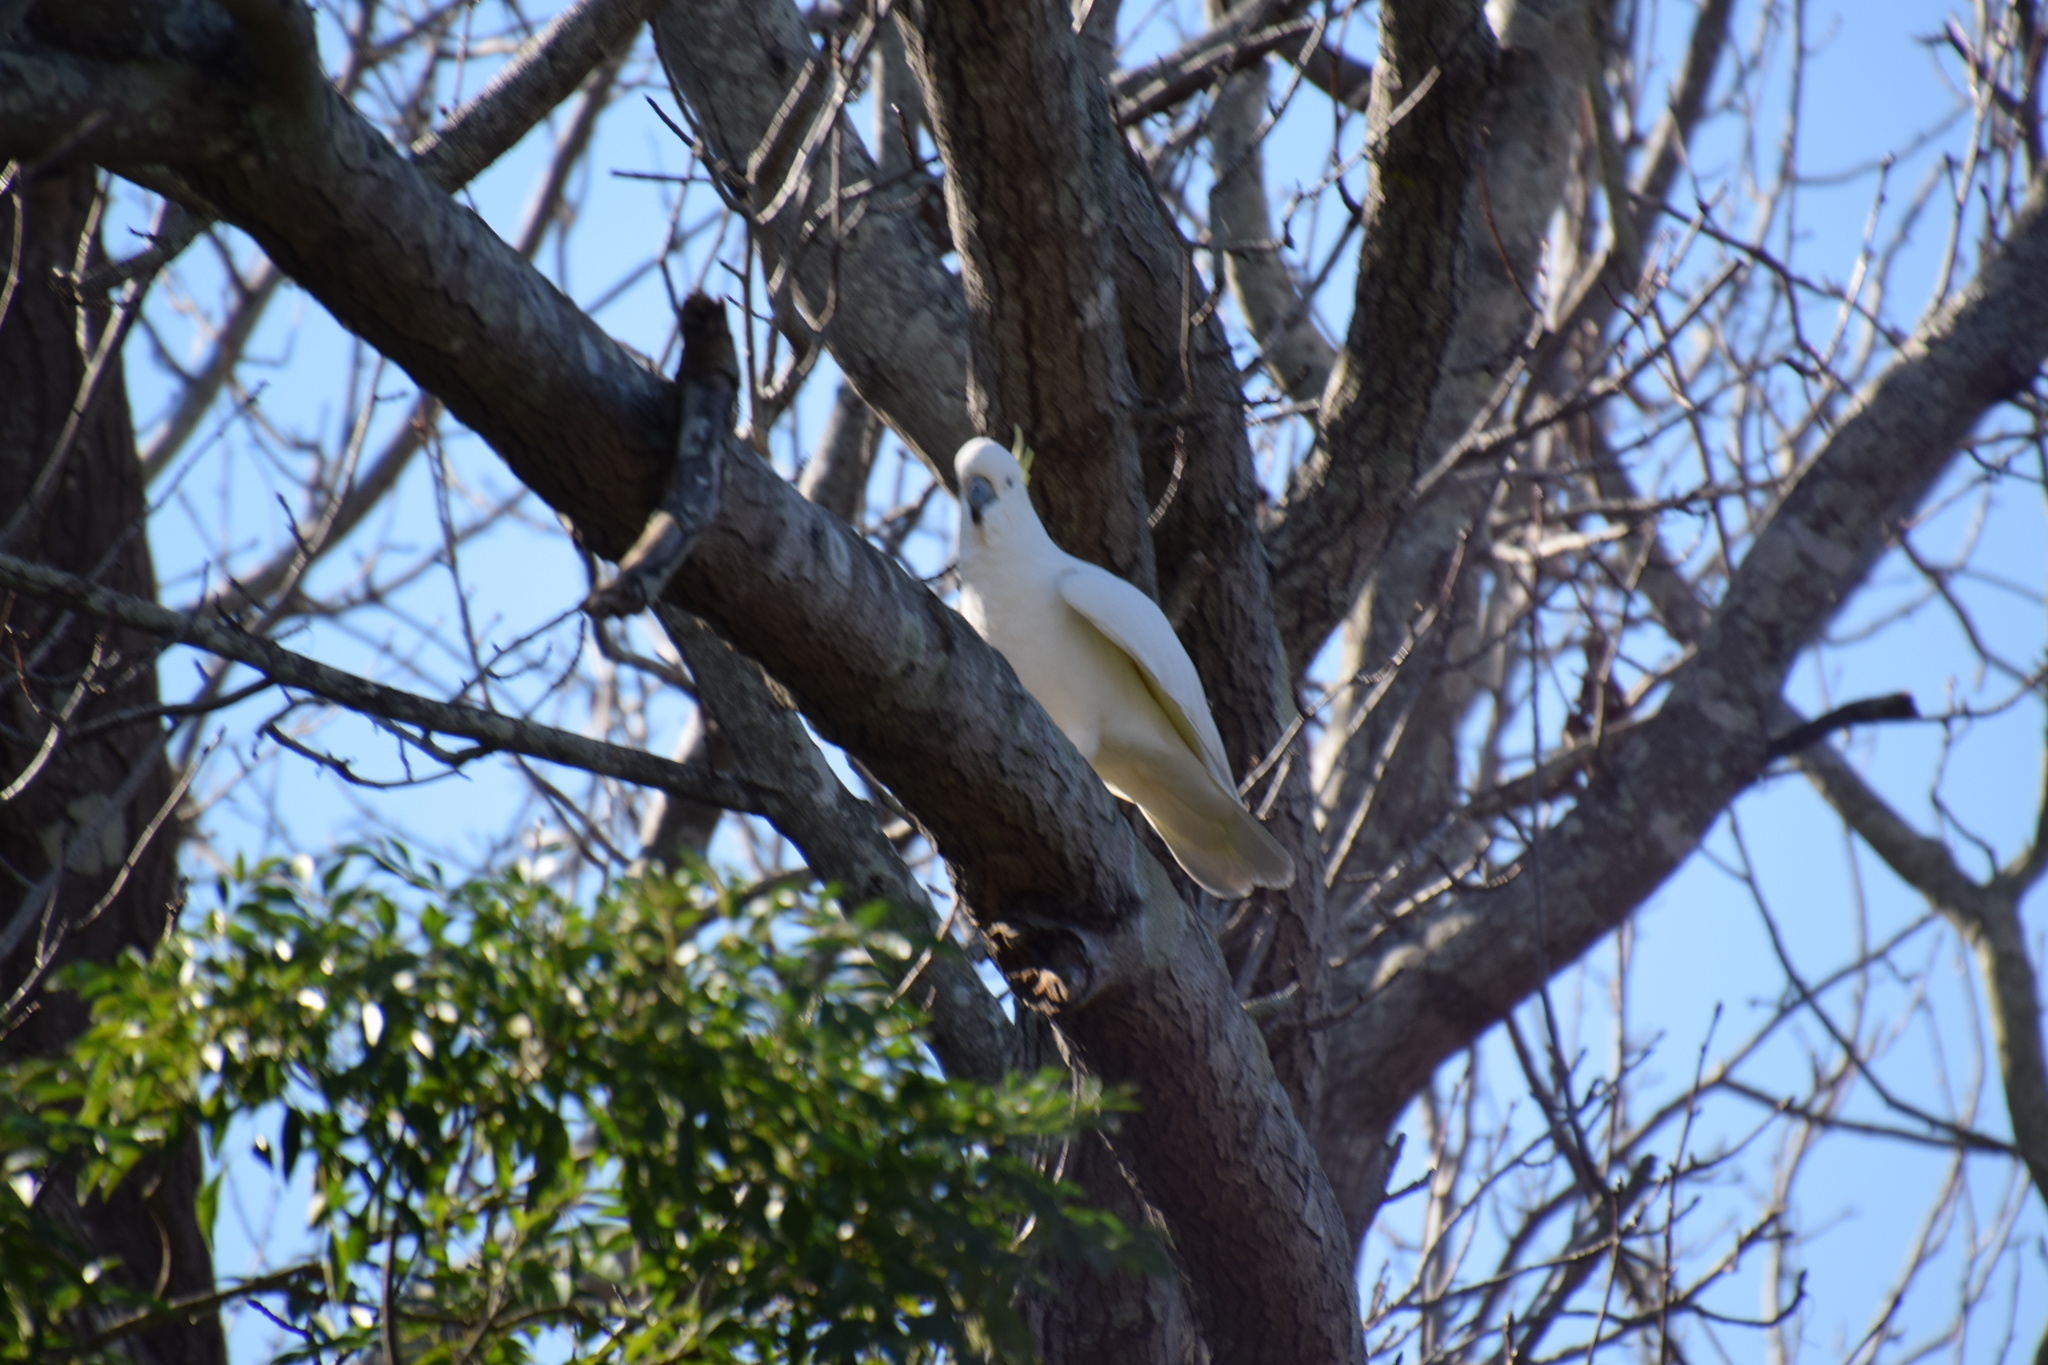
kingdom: Animalia
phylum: Chordata
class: Aves
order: Psittaciformes
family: Psittacidae
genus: Cacatua
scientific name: Cacatua galerita
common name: Sulphur-crested cockatoo
